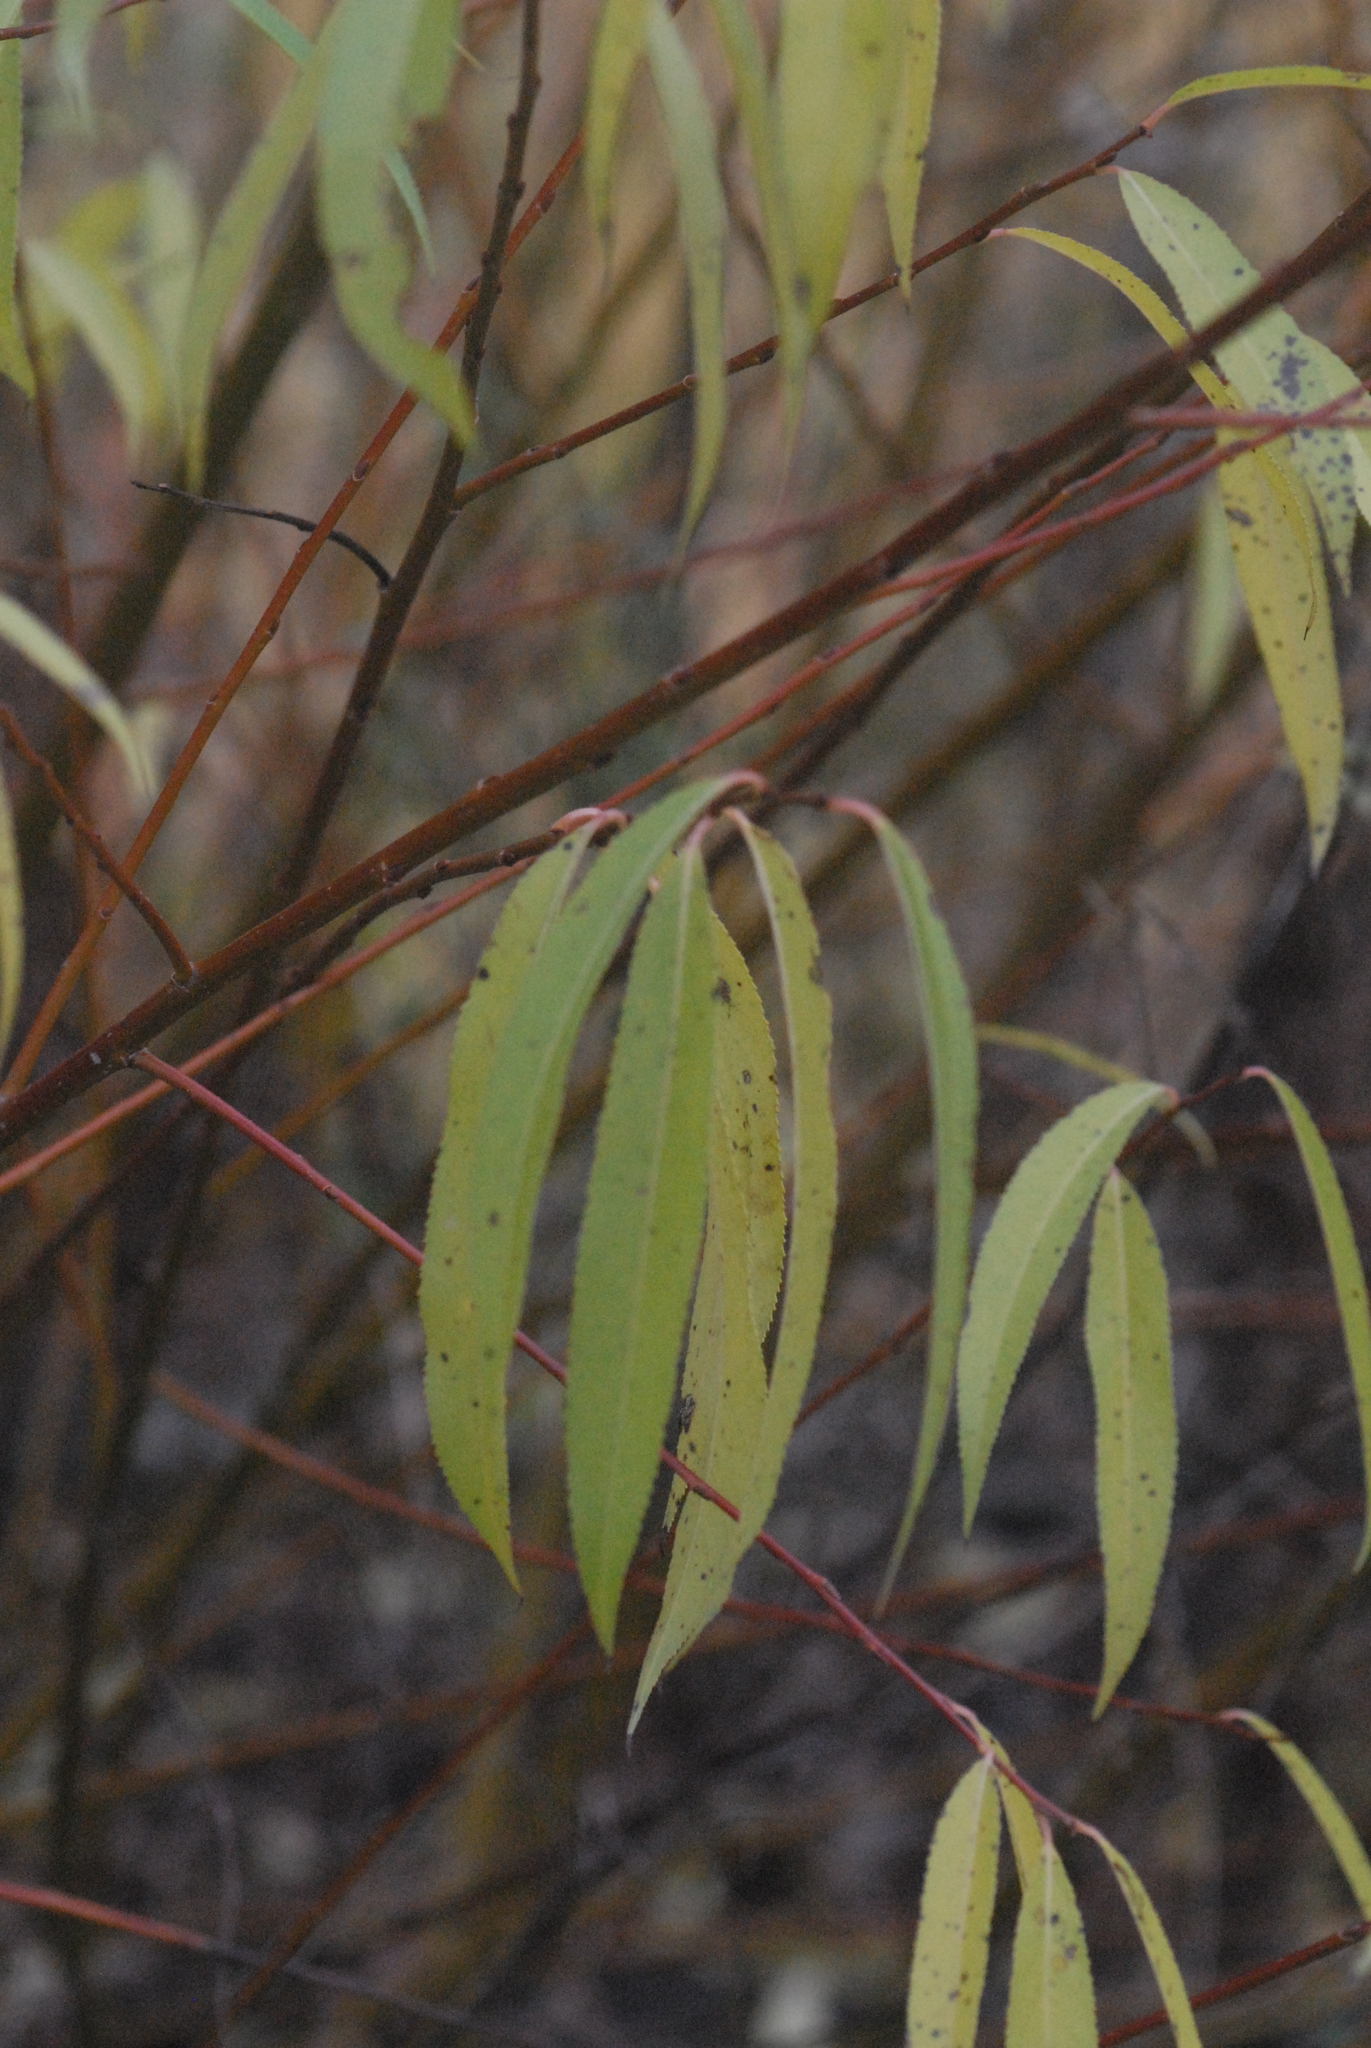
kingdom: Plantae
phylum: Tracheophyta
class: Magnoliopsida
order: Malpighiales
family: Salicaceae
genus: Salix
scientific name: Salix acutifolia
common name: Siberian violet-willow
